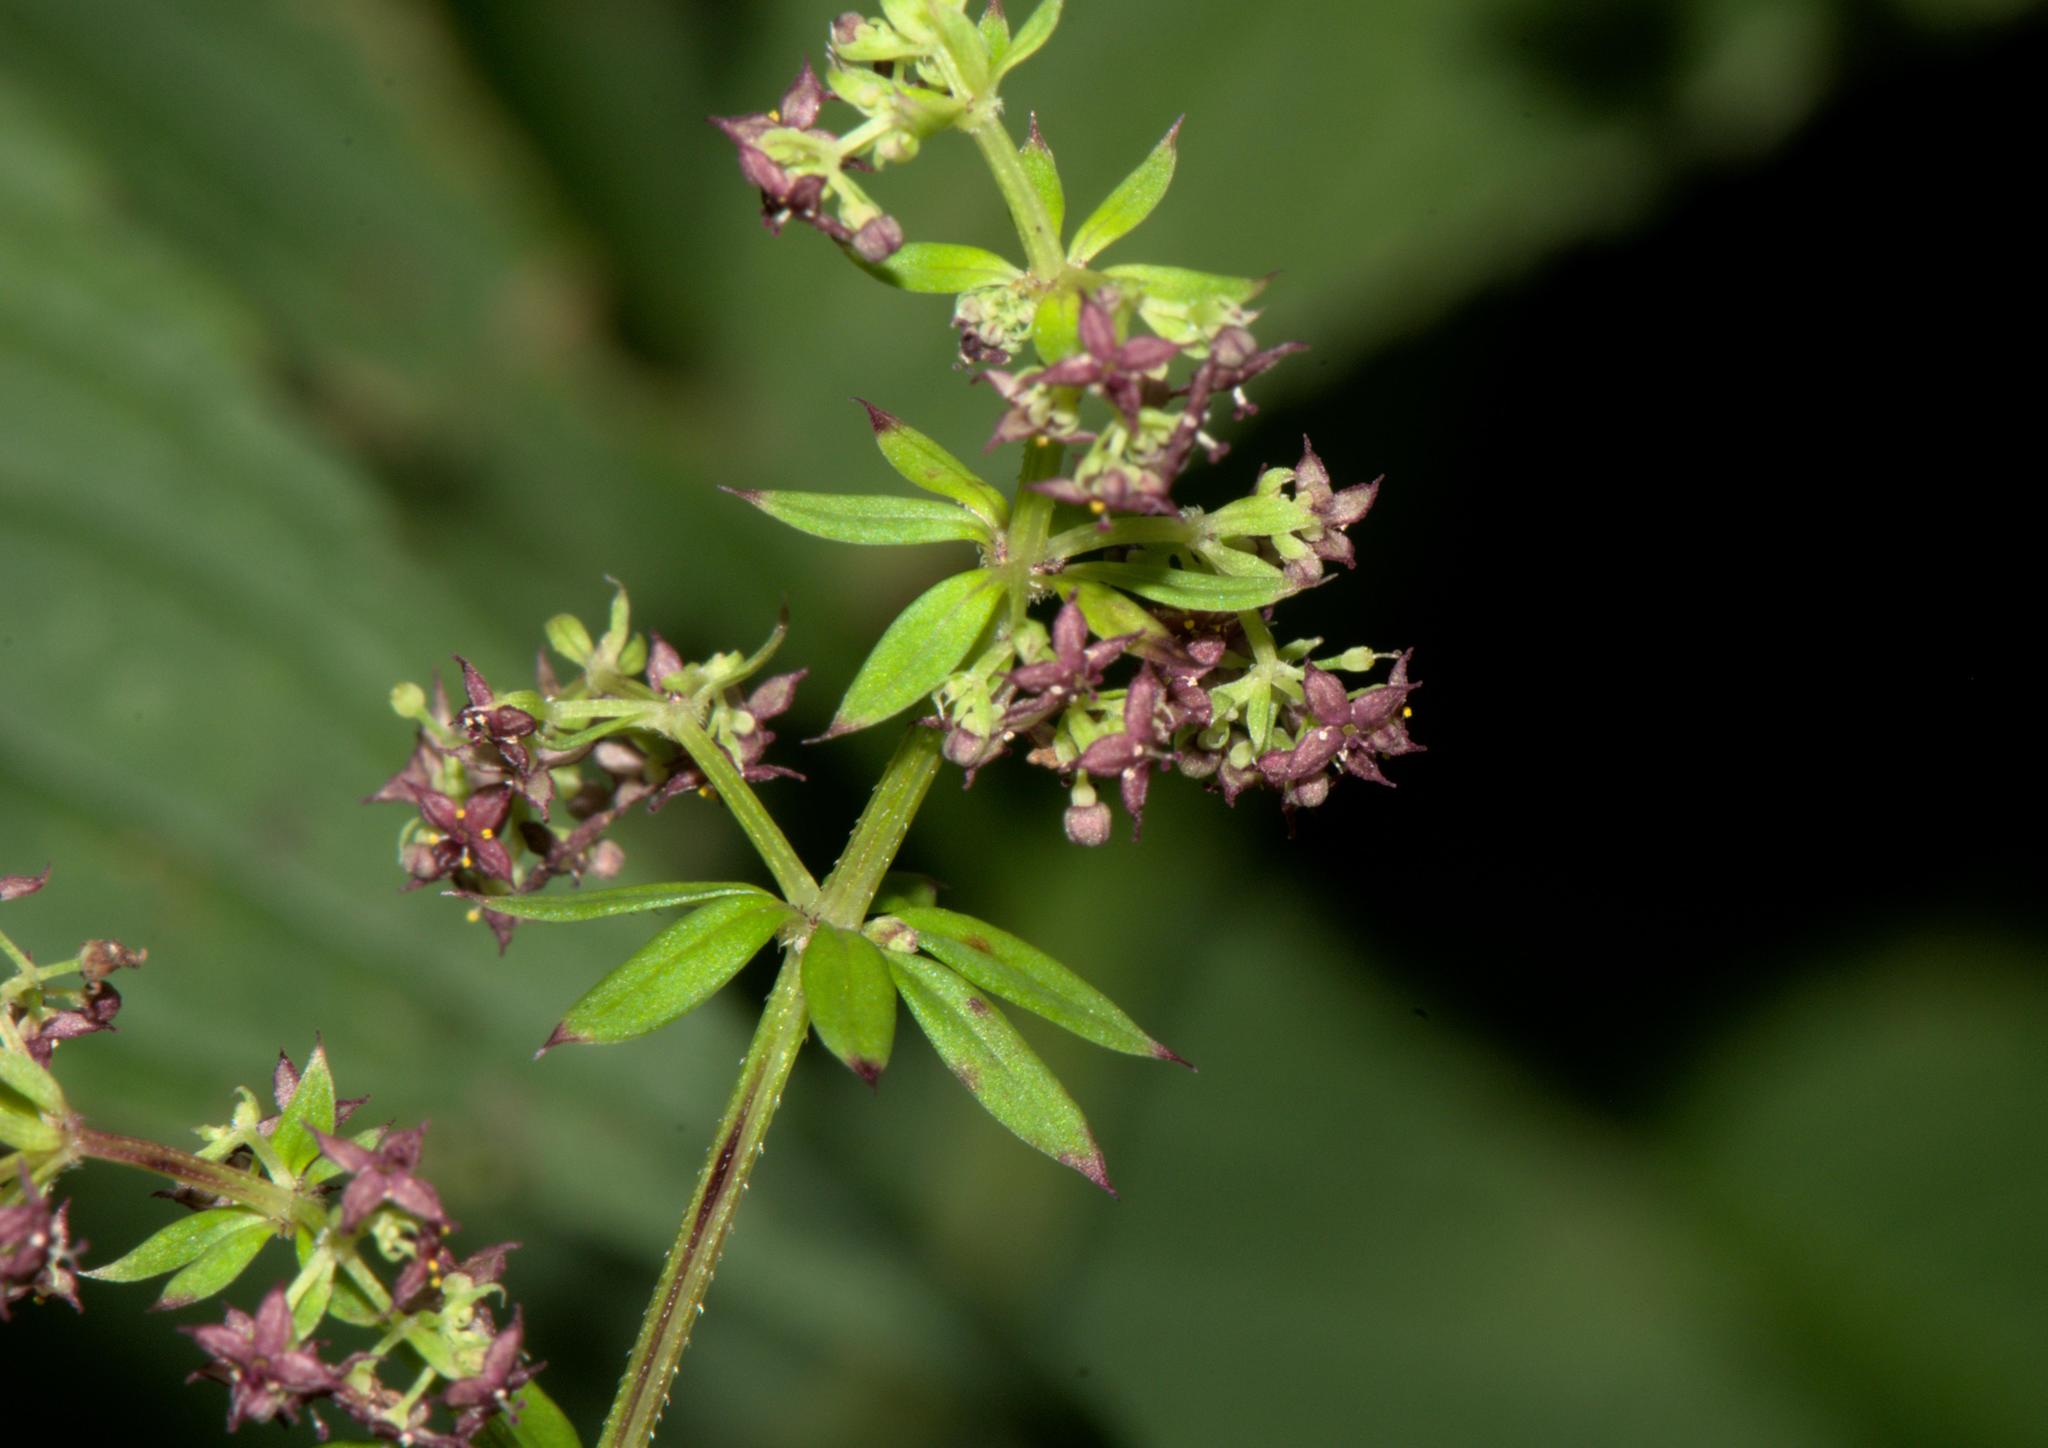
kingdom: Plantae
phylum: Tracheophyta
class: Magnoliopsida
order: Gentianales
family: Rubiaceae
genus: Rubia
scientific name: Rubia cordifolia
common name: Indian madder
